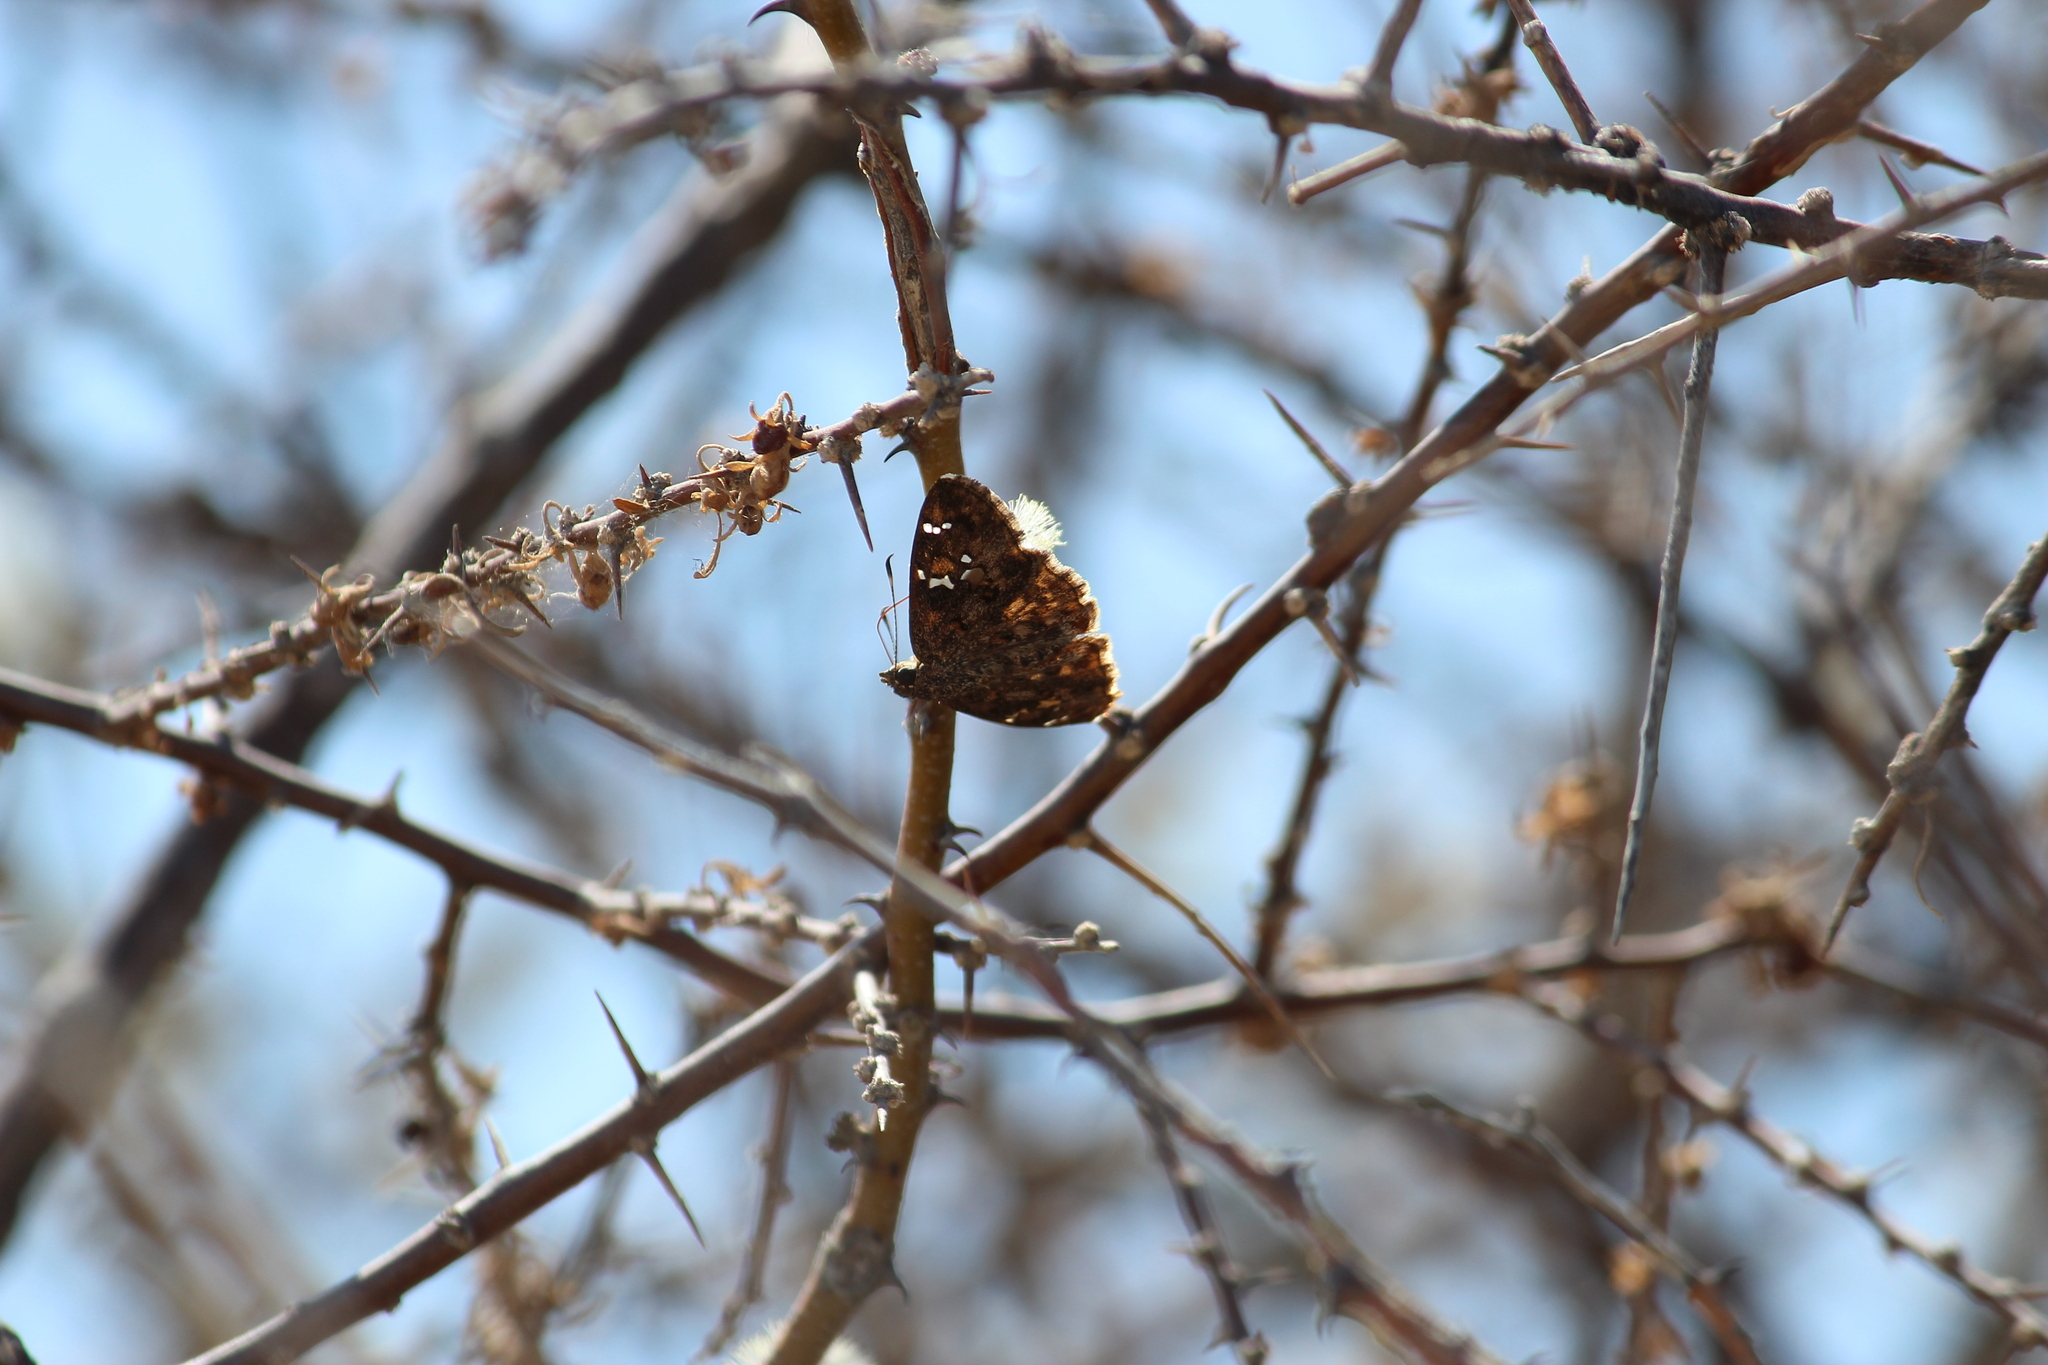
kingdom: Animalia
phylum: Arthropoda
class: Insecta
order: Lepidoptera
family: Hesperiidae
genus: Sarangesa
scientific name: Sarangesa seineri
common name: Dark elfin
